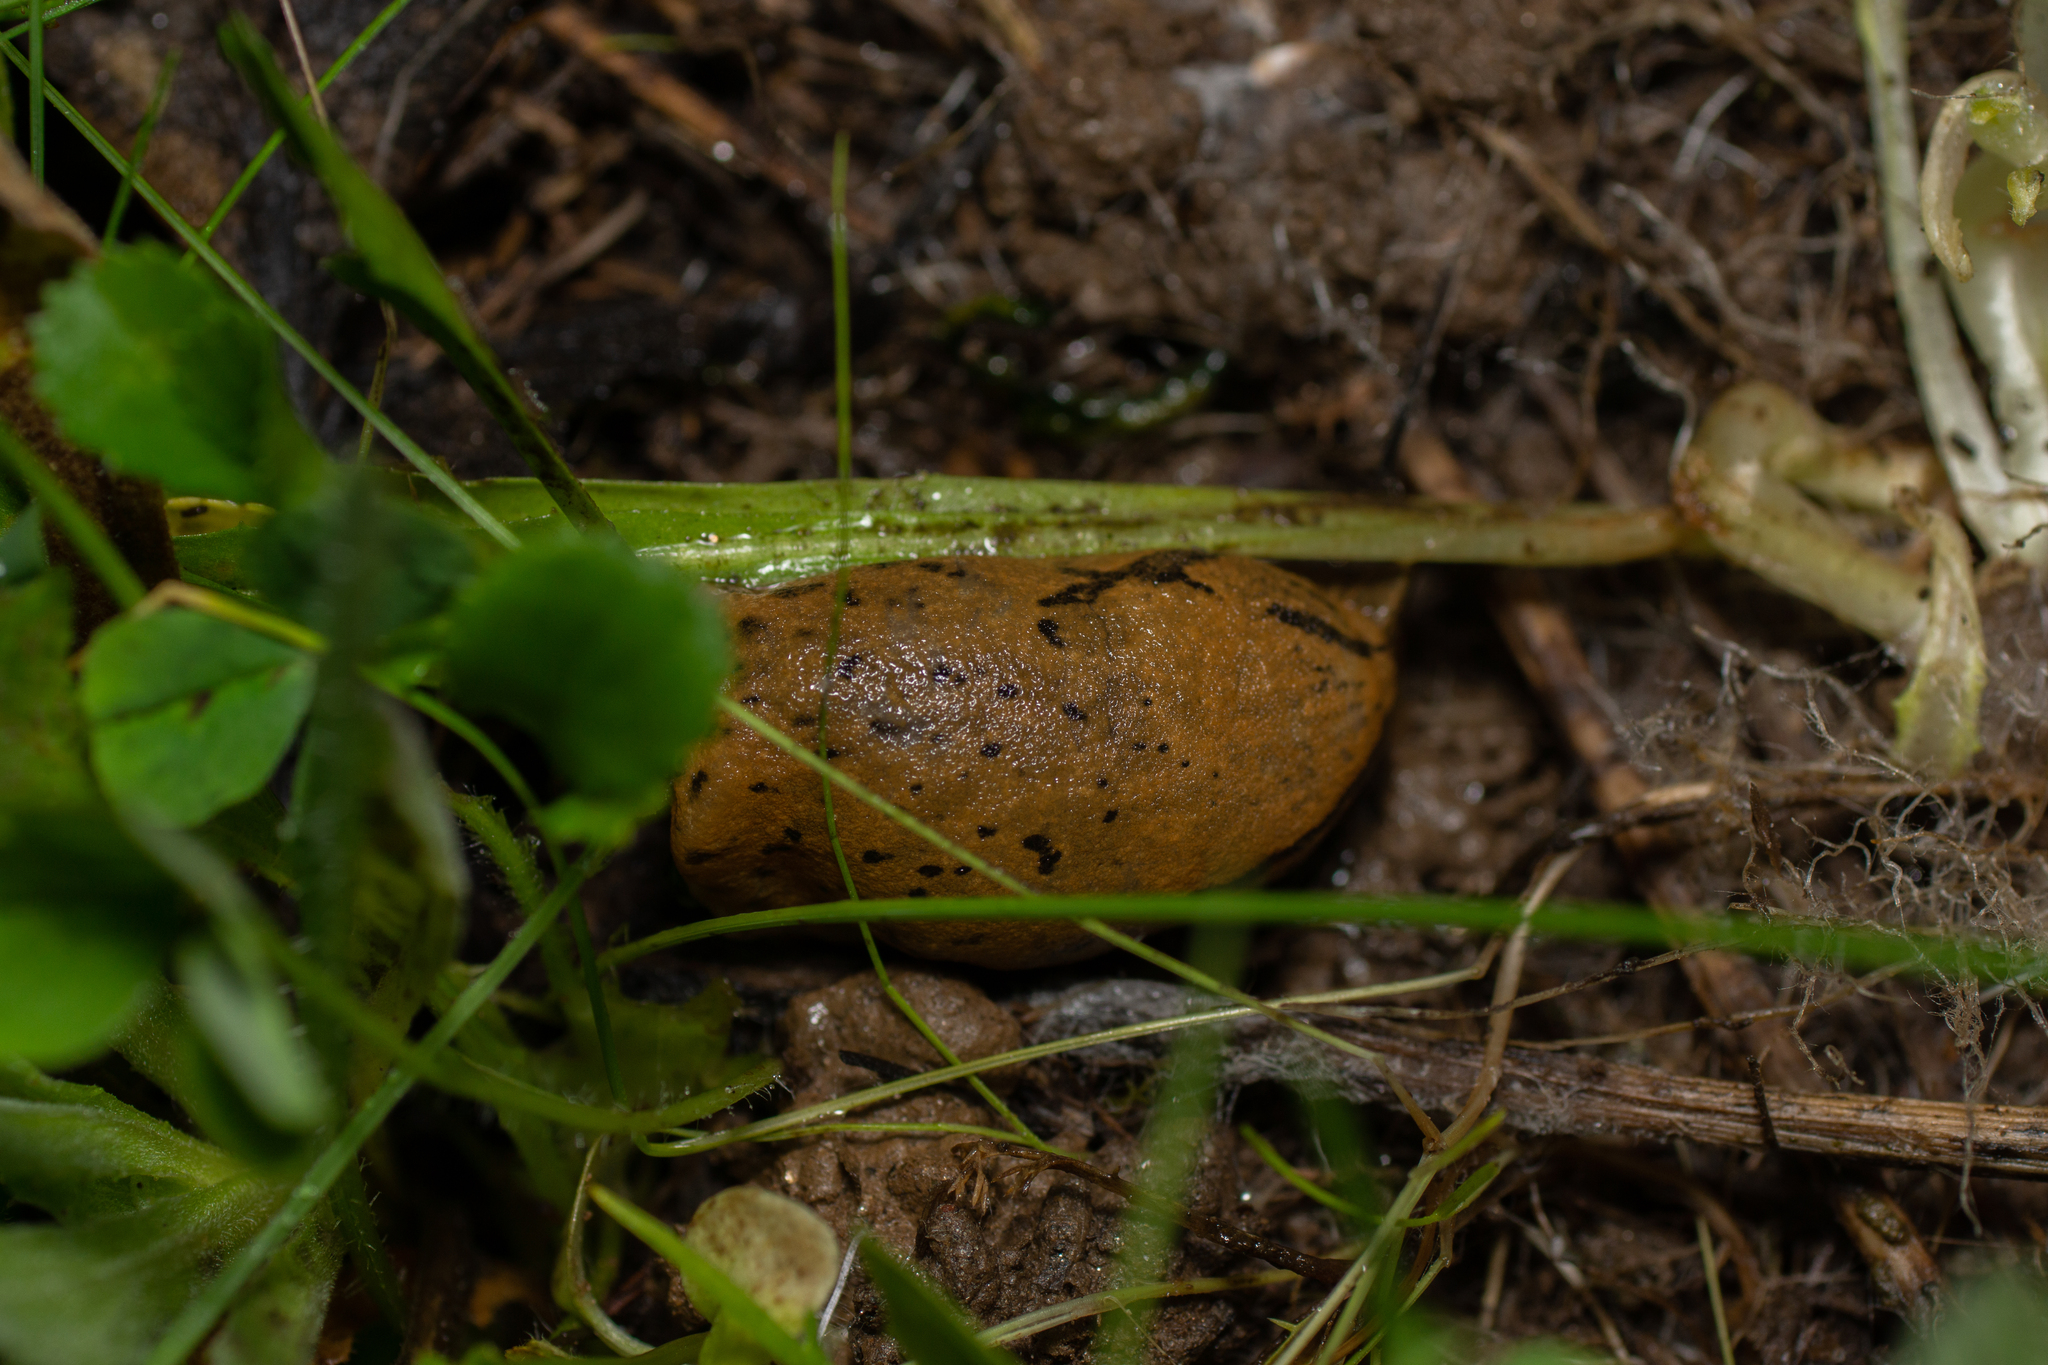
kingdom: Animalia
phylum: Mollusca
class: Gastropoda
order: Stylommatophora
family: Parmacellidae
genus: Drusia
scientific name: Drusia valenciennii
